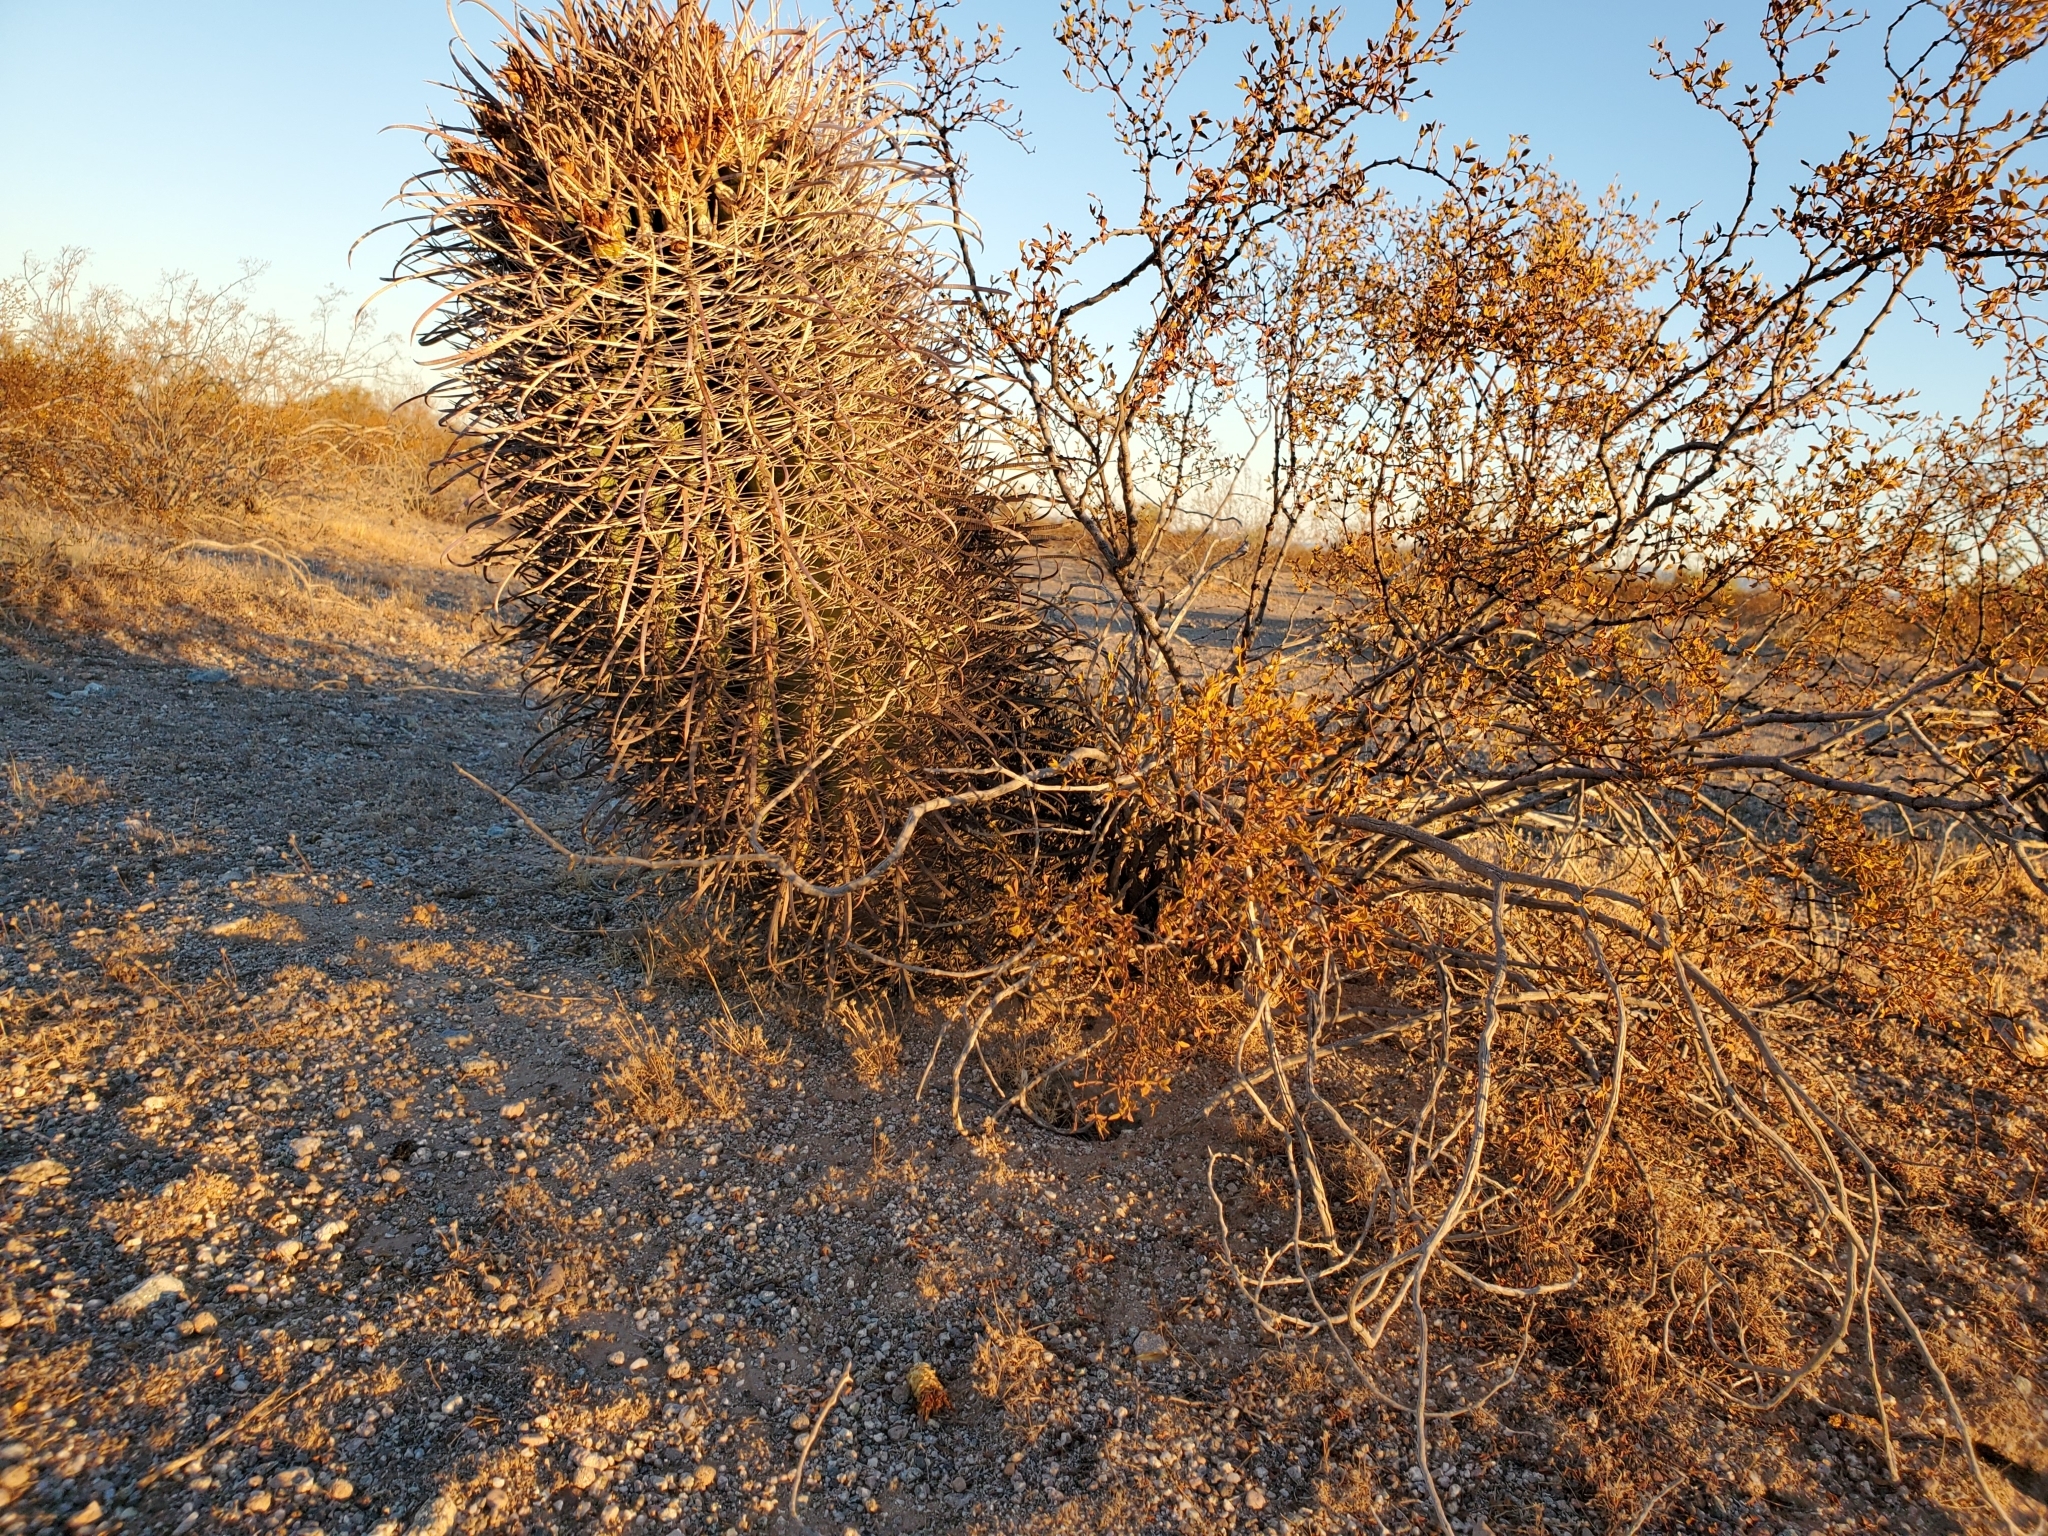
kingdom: Plantae
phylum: Tracheophyta
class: Magnoliopsida
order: Caryophyllales
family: Cactaceae
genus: Ferocactus
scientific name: Ferocactus cylindraceus
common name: California barrel cactus
